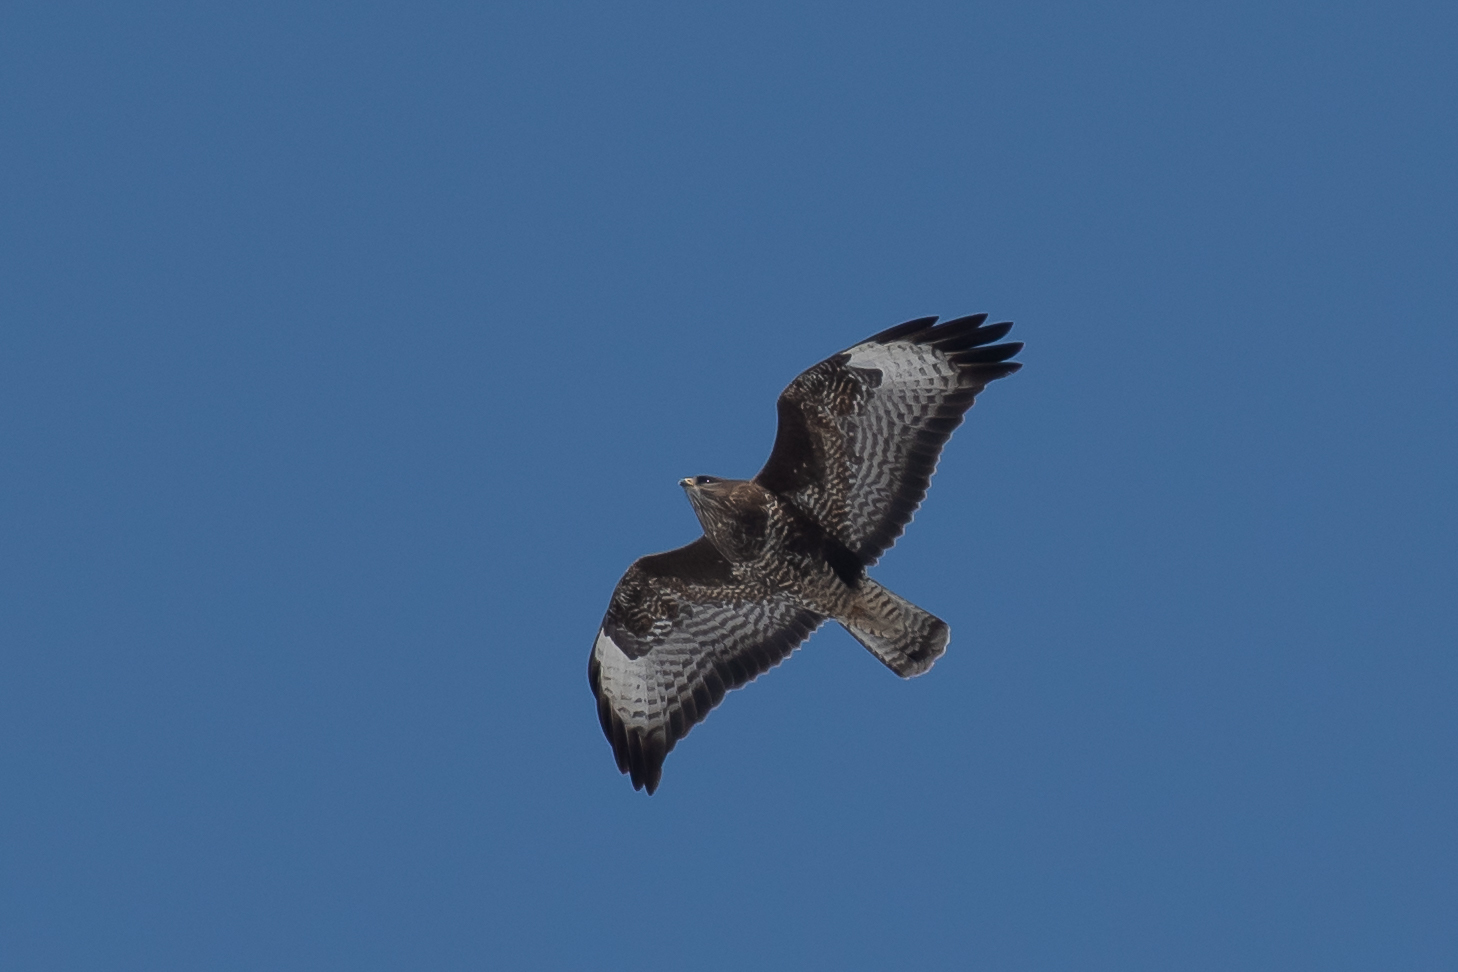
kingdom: Animalia
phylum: Chordata
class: Aves
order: Accipitriformes
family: Accipitridae
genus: Buteo
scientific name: Buteo buteo
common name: Common buzzard
